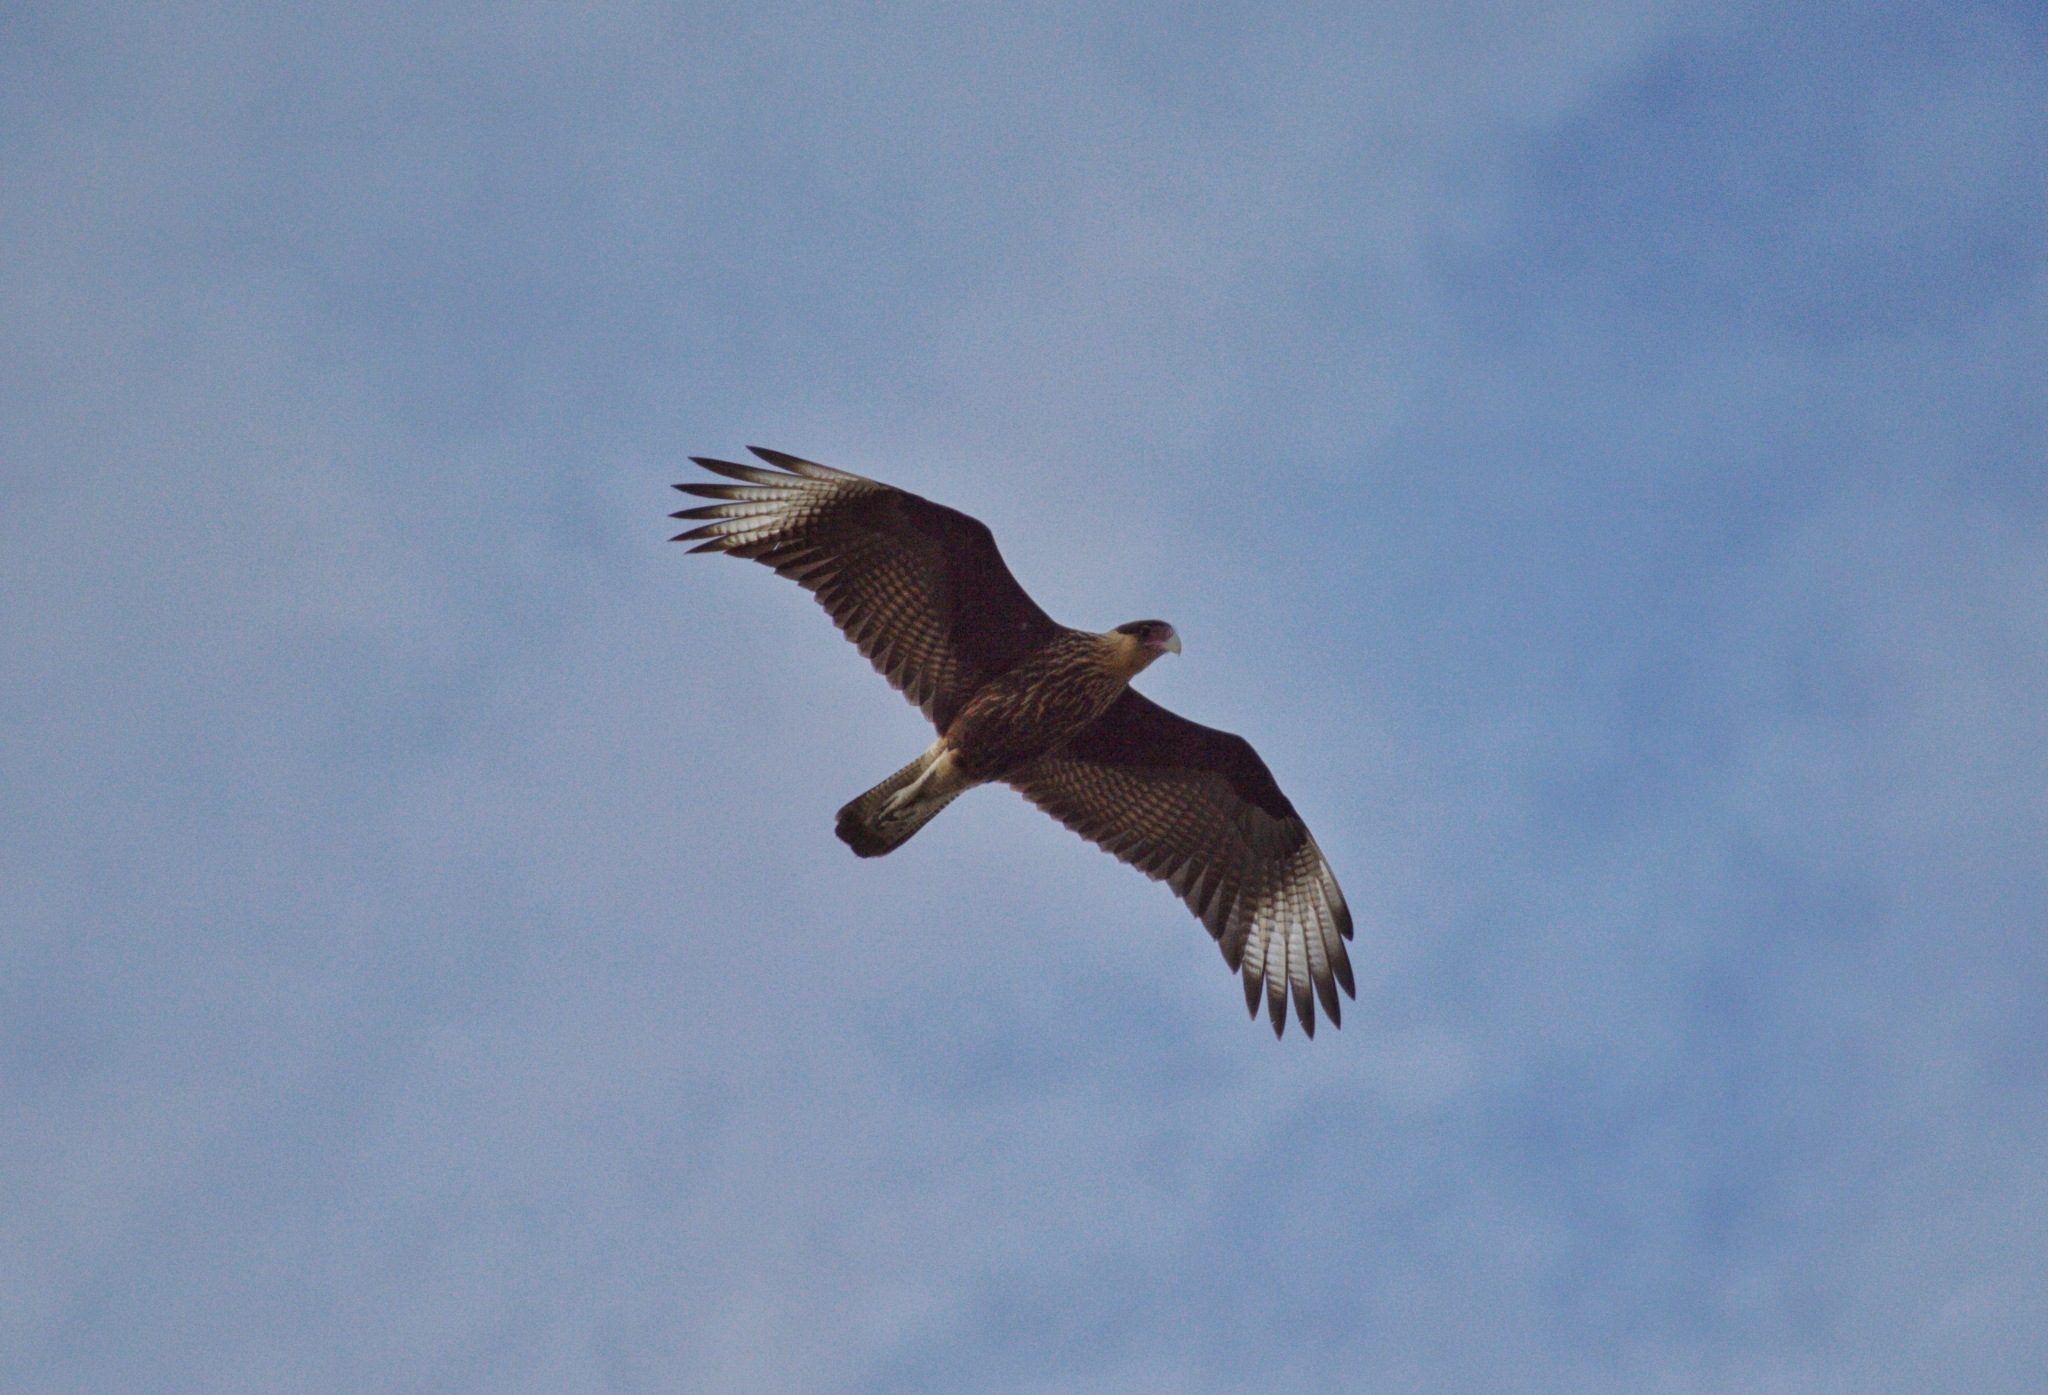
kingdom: Animalia
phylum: Chordata
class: Aves
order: Falconiformes
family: Falconidae
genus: Caracara
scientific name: Caracara plancus
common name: Southern caracara
